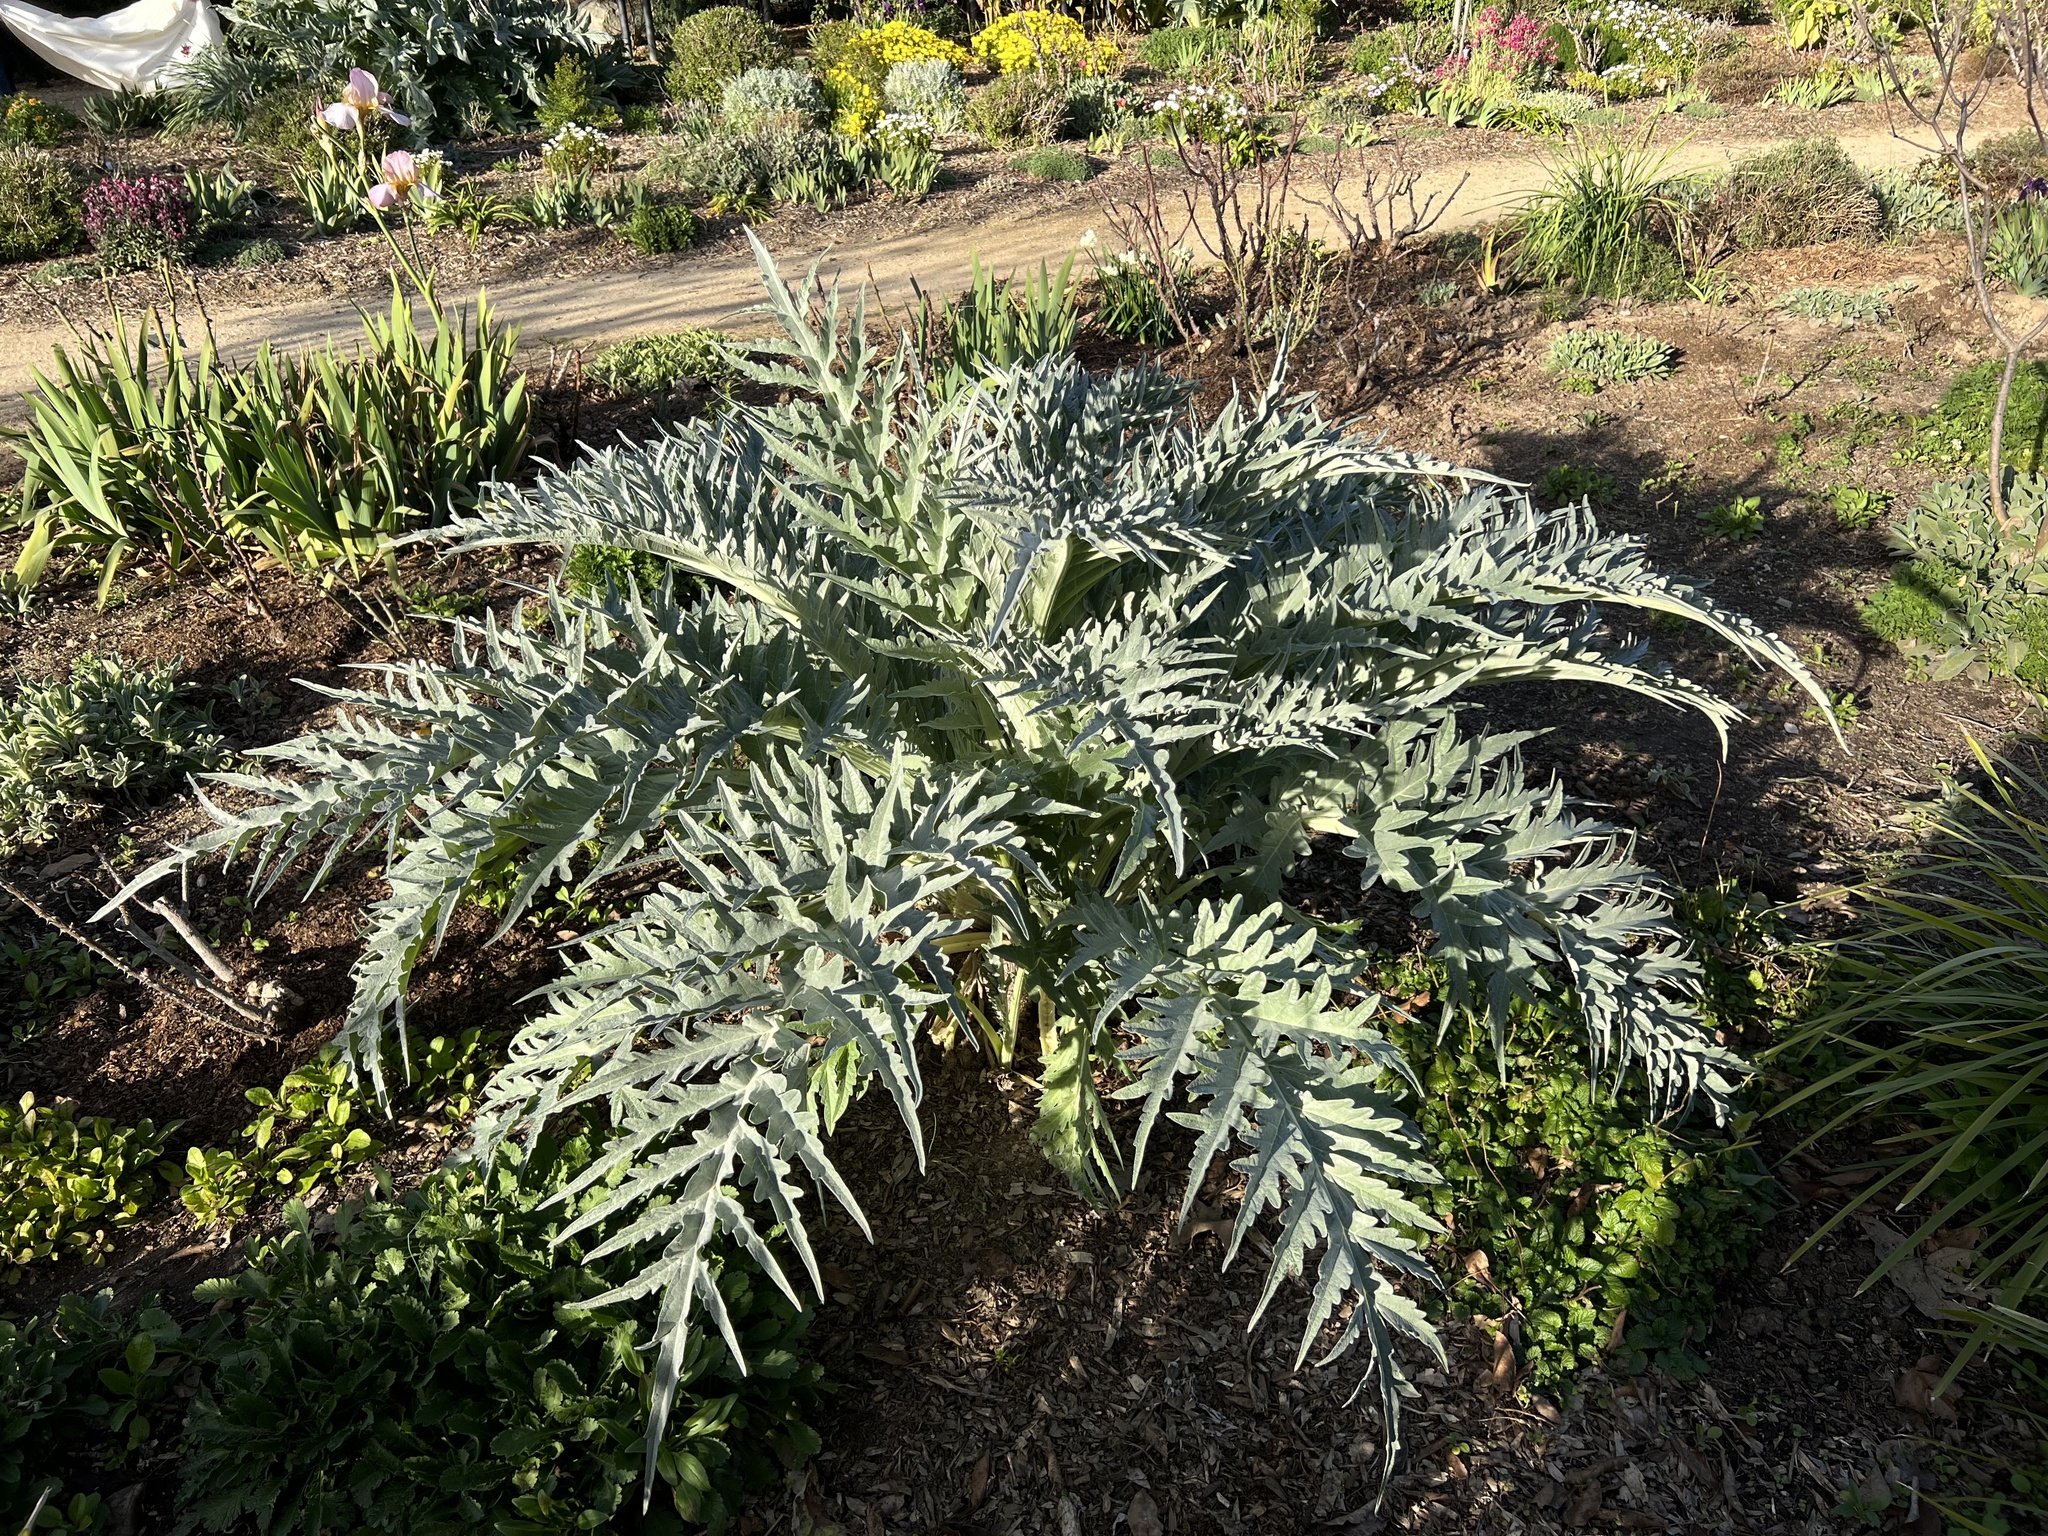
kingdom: Plantae
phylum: Tracheophyta
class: Magnoliopsida
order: Asterales
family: Asteraceae
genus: Cynara
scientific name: Cynara cardunculus
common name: Globe artichoke
